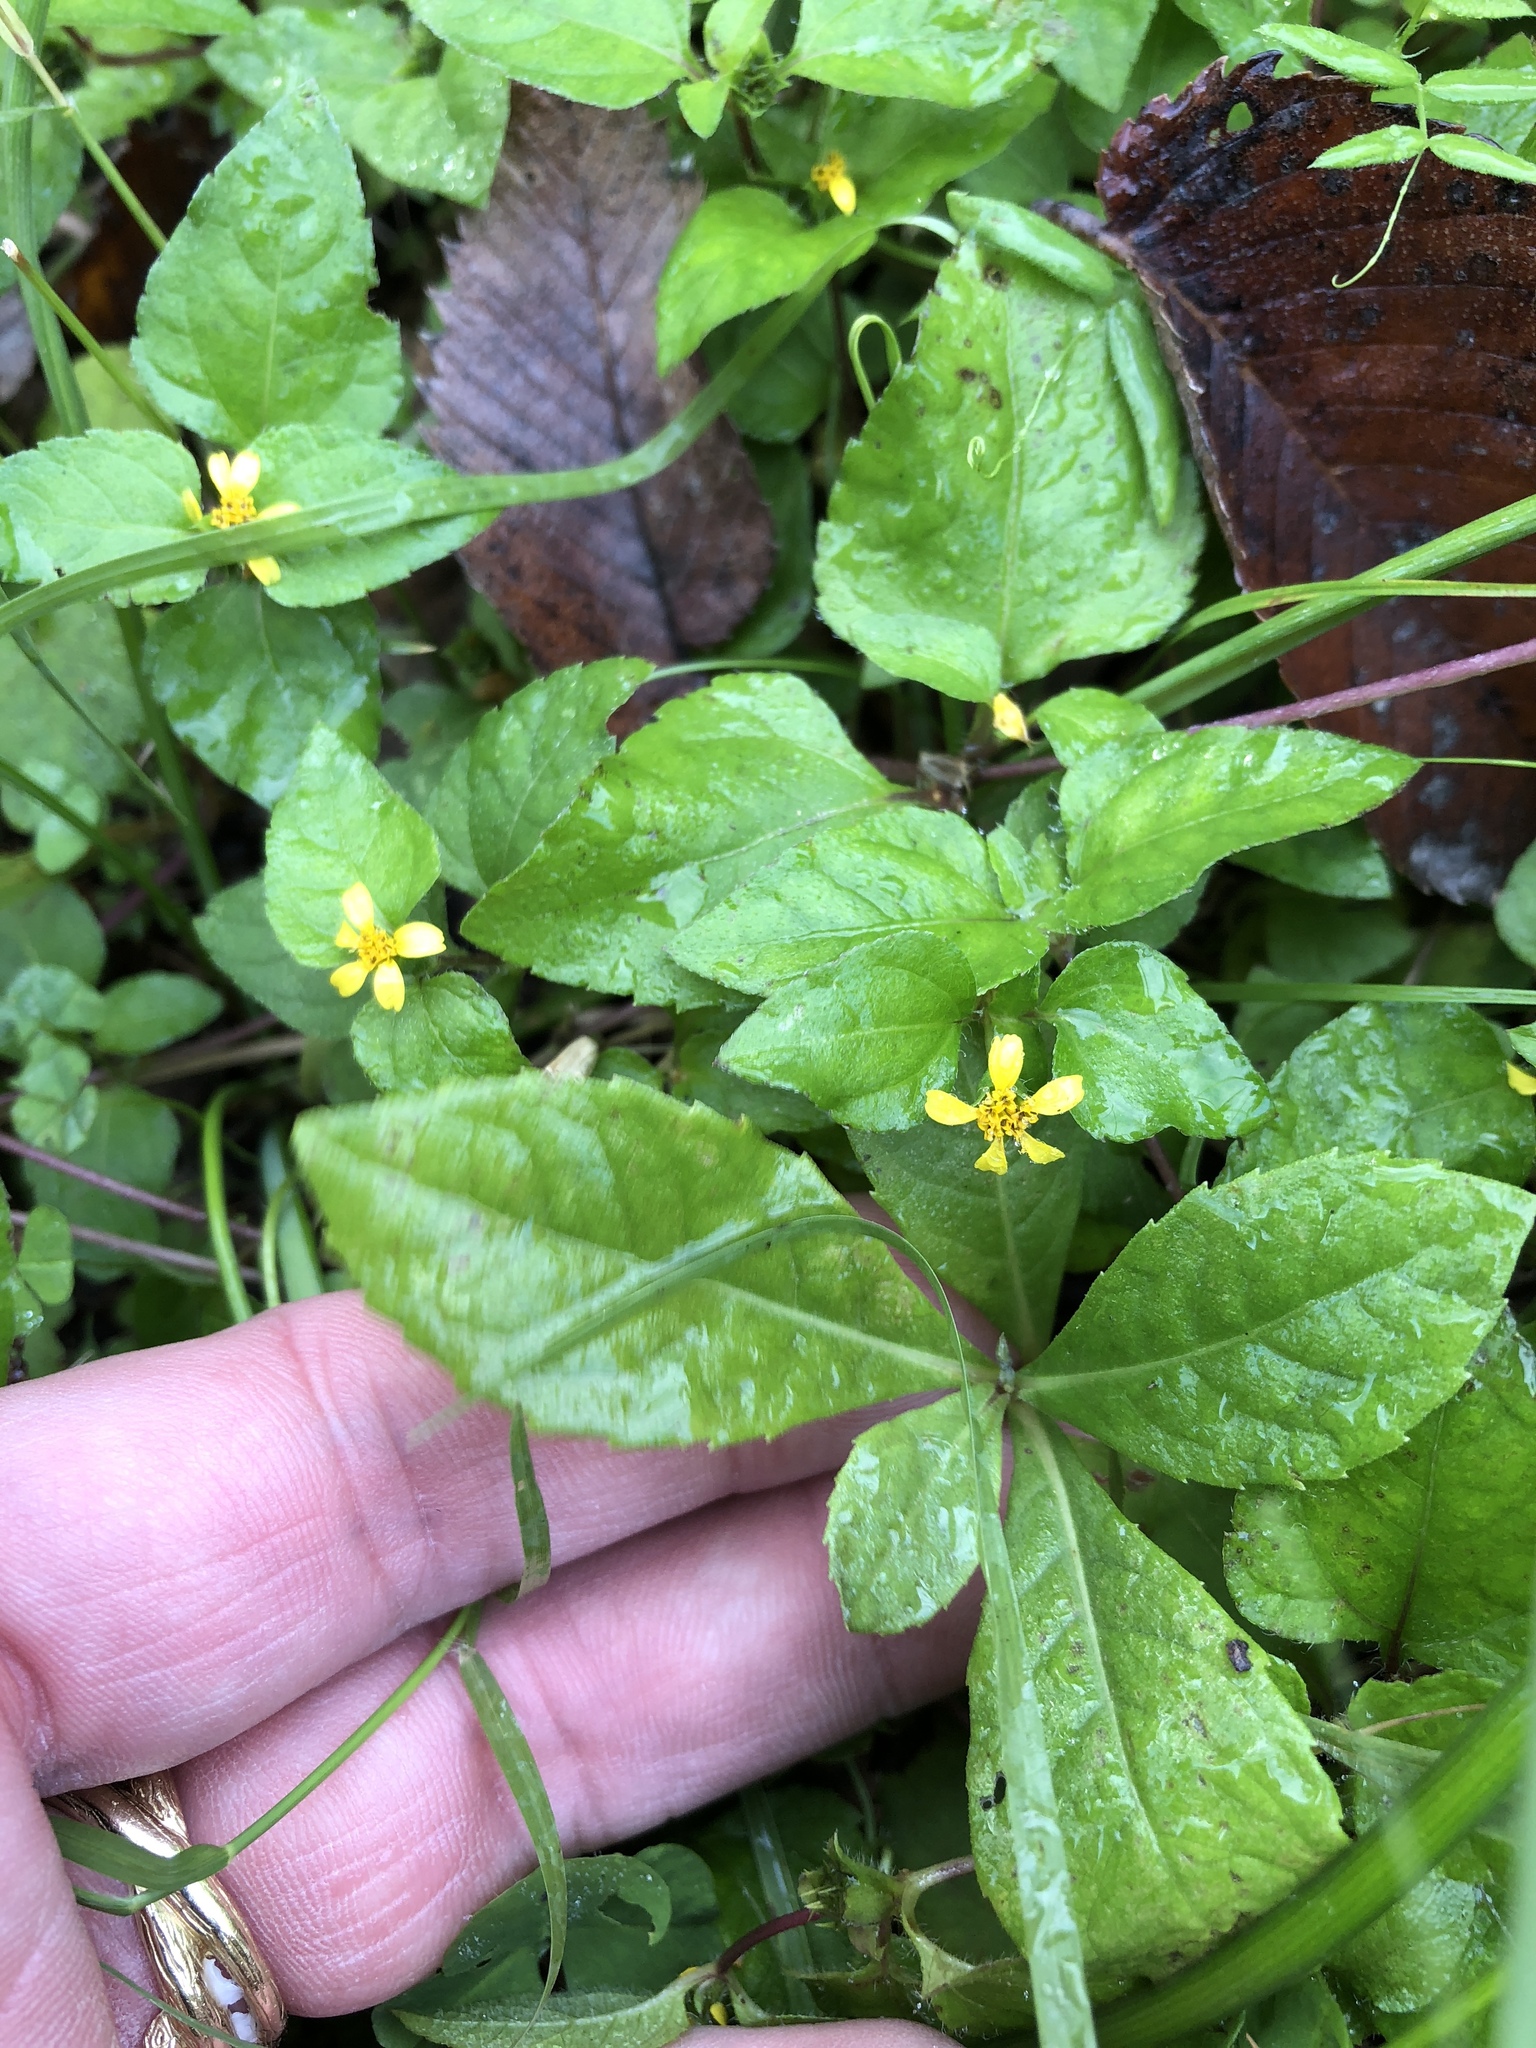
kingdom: Plantae
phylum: Tracheophyta
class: Magnoliopsida
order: Asterales
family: Asteraceae
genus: Calyptocarpus
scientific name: Calyptocarpus vialis
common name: Straggler daisy
